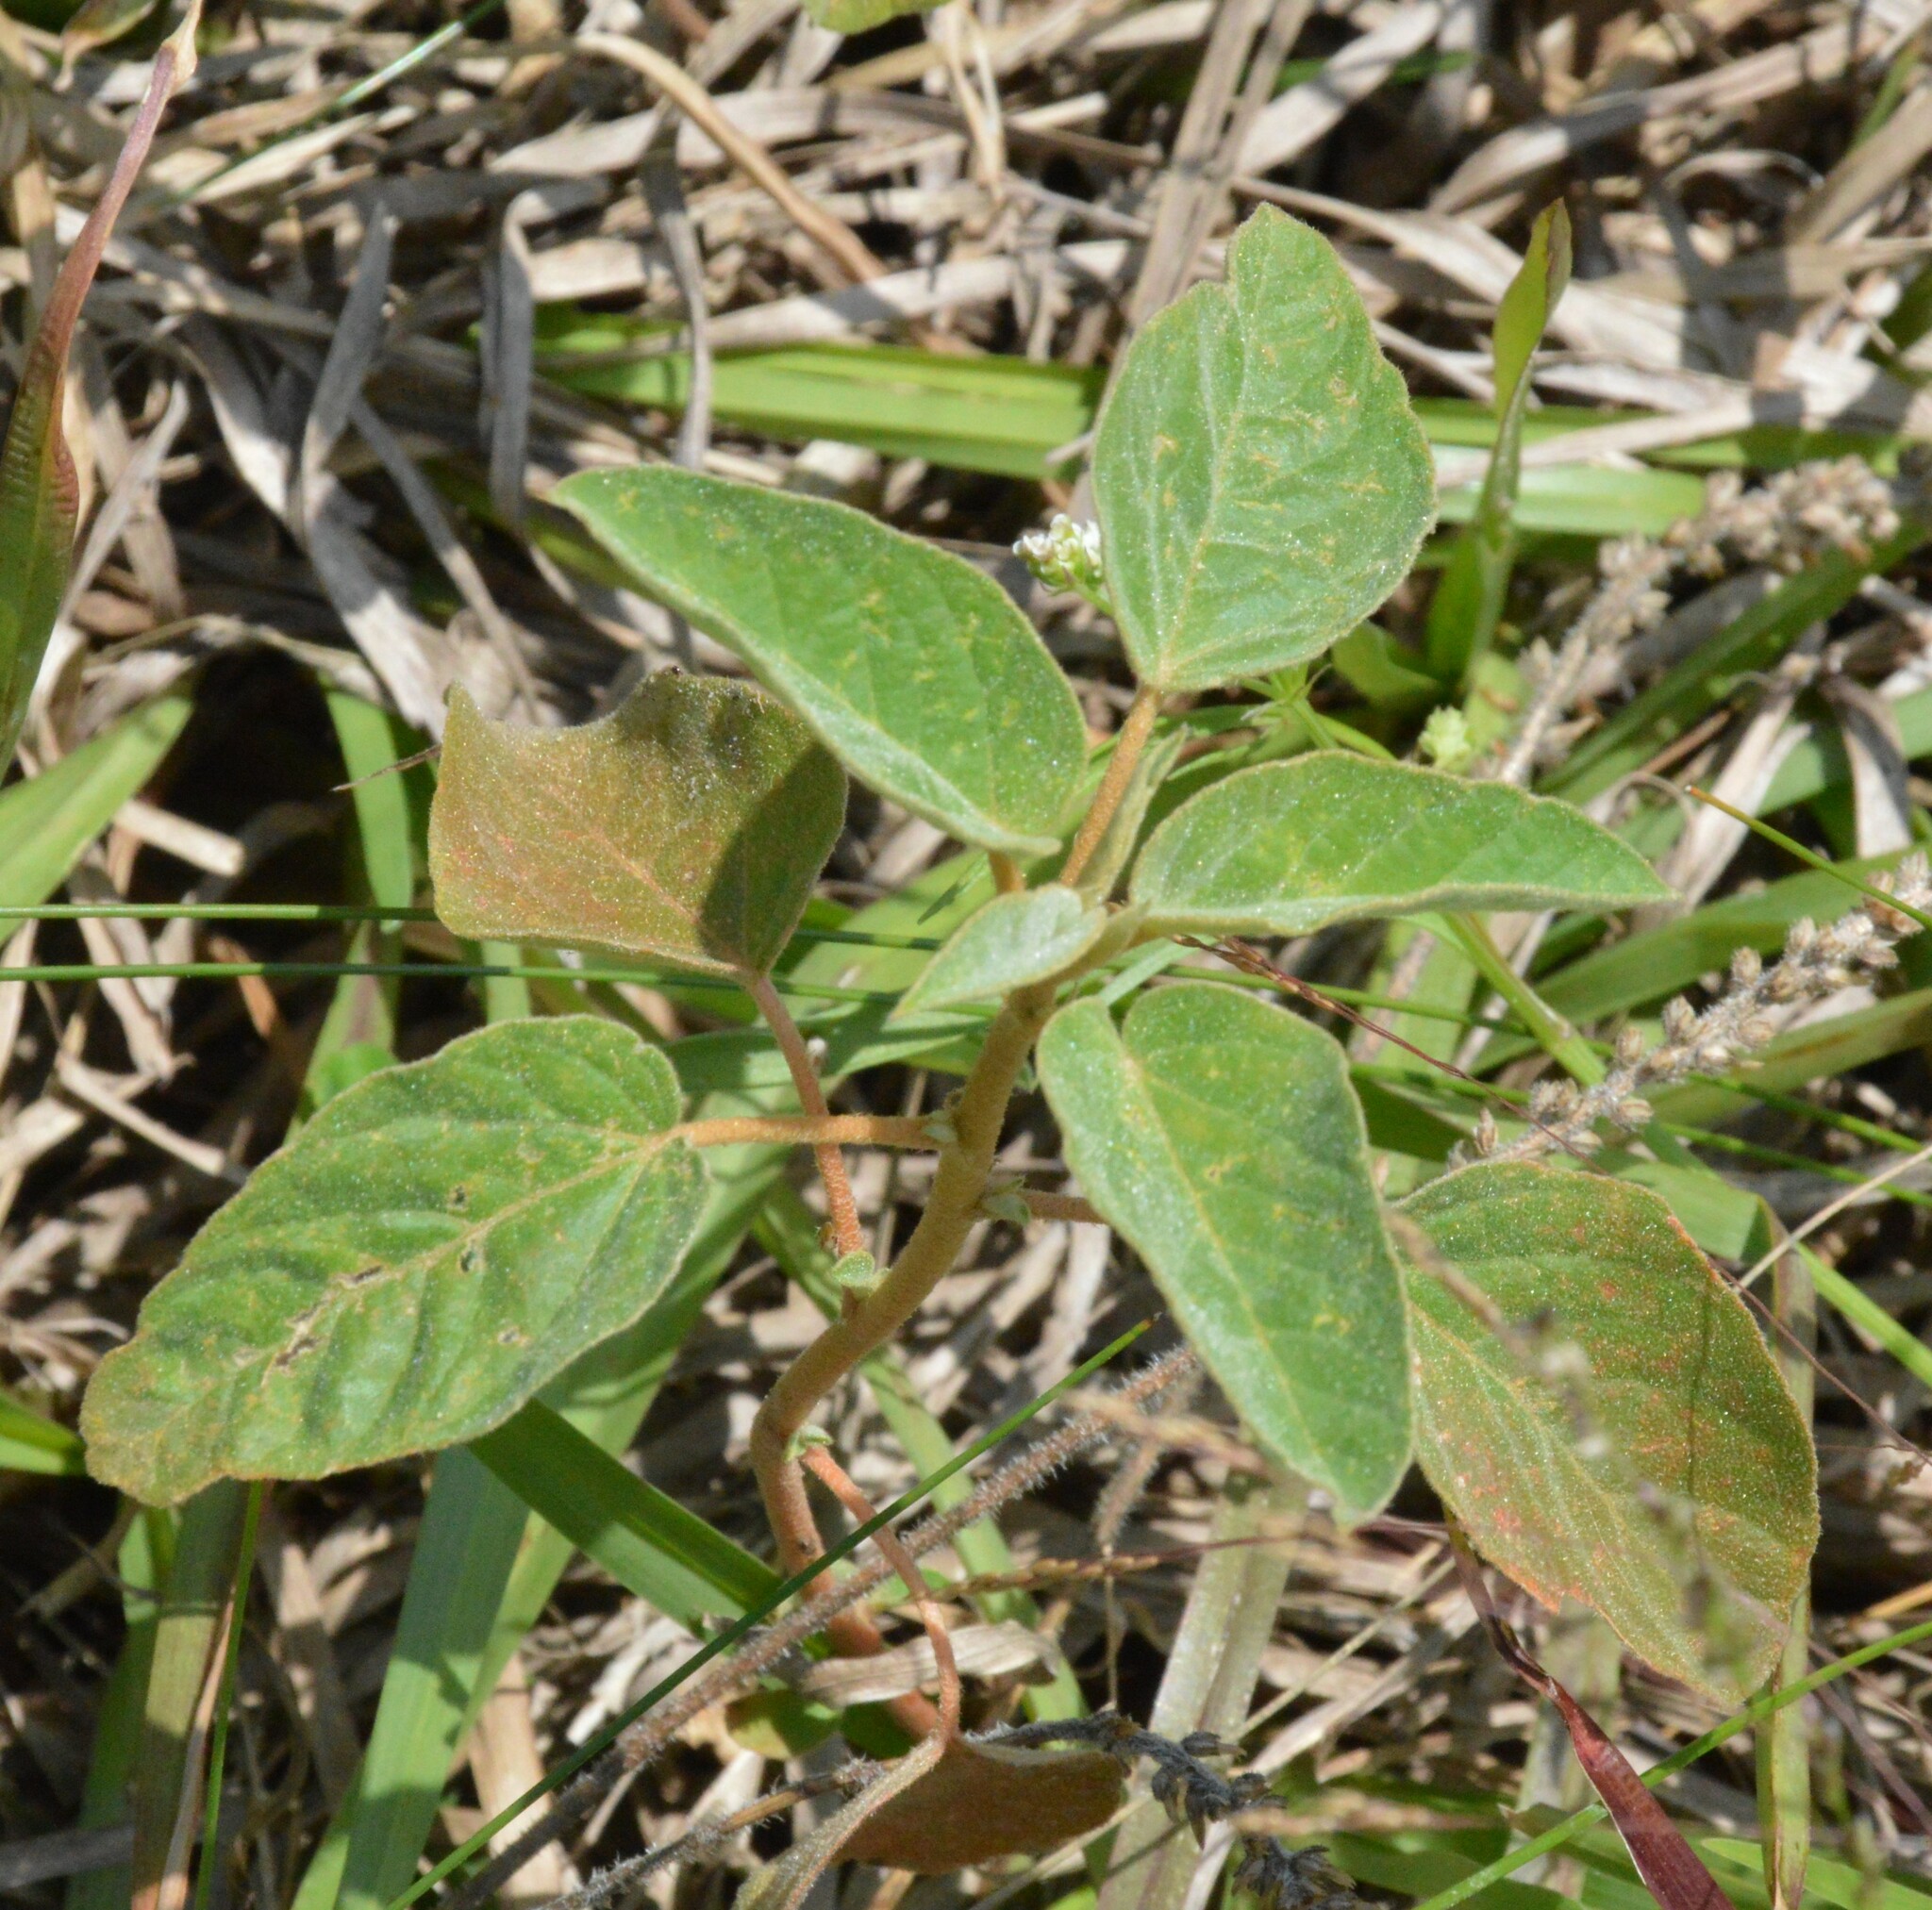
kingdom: Plantae
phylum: Tracheophyta
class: Magnoliopsida
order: Malpighiales
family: Euphorbiaceae
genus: Croton
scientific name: Croton lindheimeri
